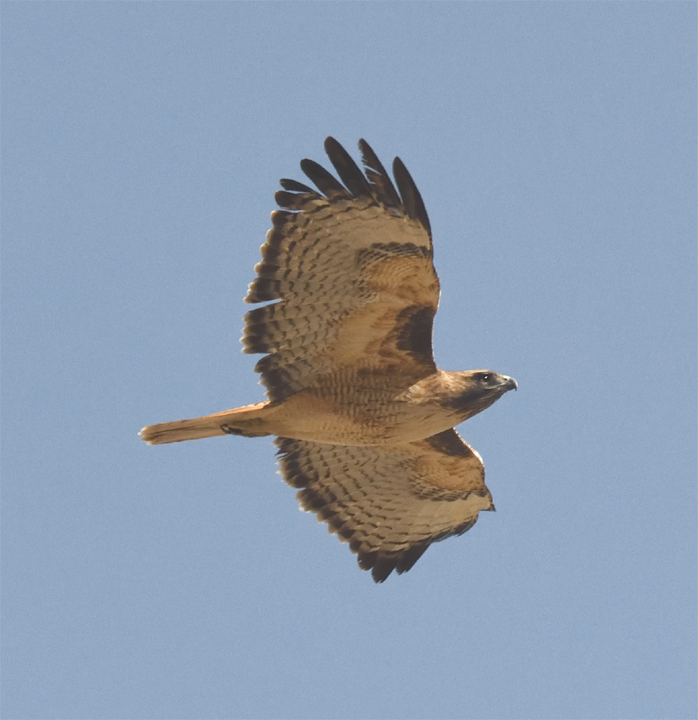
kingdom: Animalia
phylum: Chordata
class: Aves
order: Accipitriformes
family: Accipitridae
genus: Buteo
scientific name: Buteo jamaicensis
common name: Red-tailed hawk
